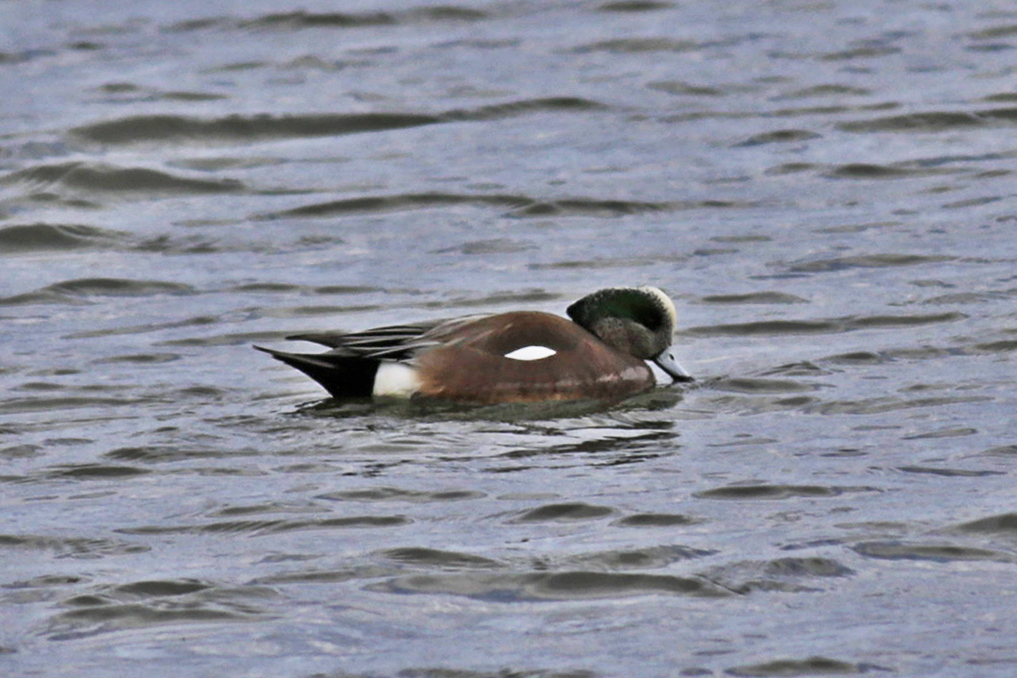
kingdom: Animalia
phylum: Chordata
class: Aves
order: Anseriformes
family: Anatidae
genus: Mareca
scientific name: Mareca americana
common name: American wigeon
